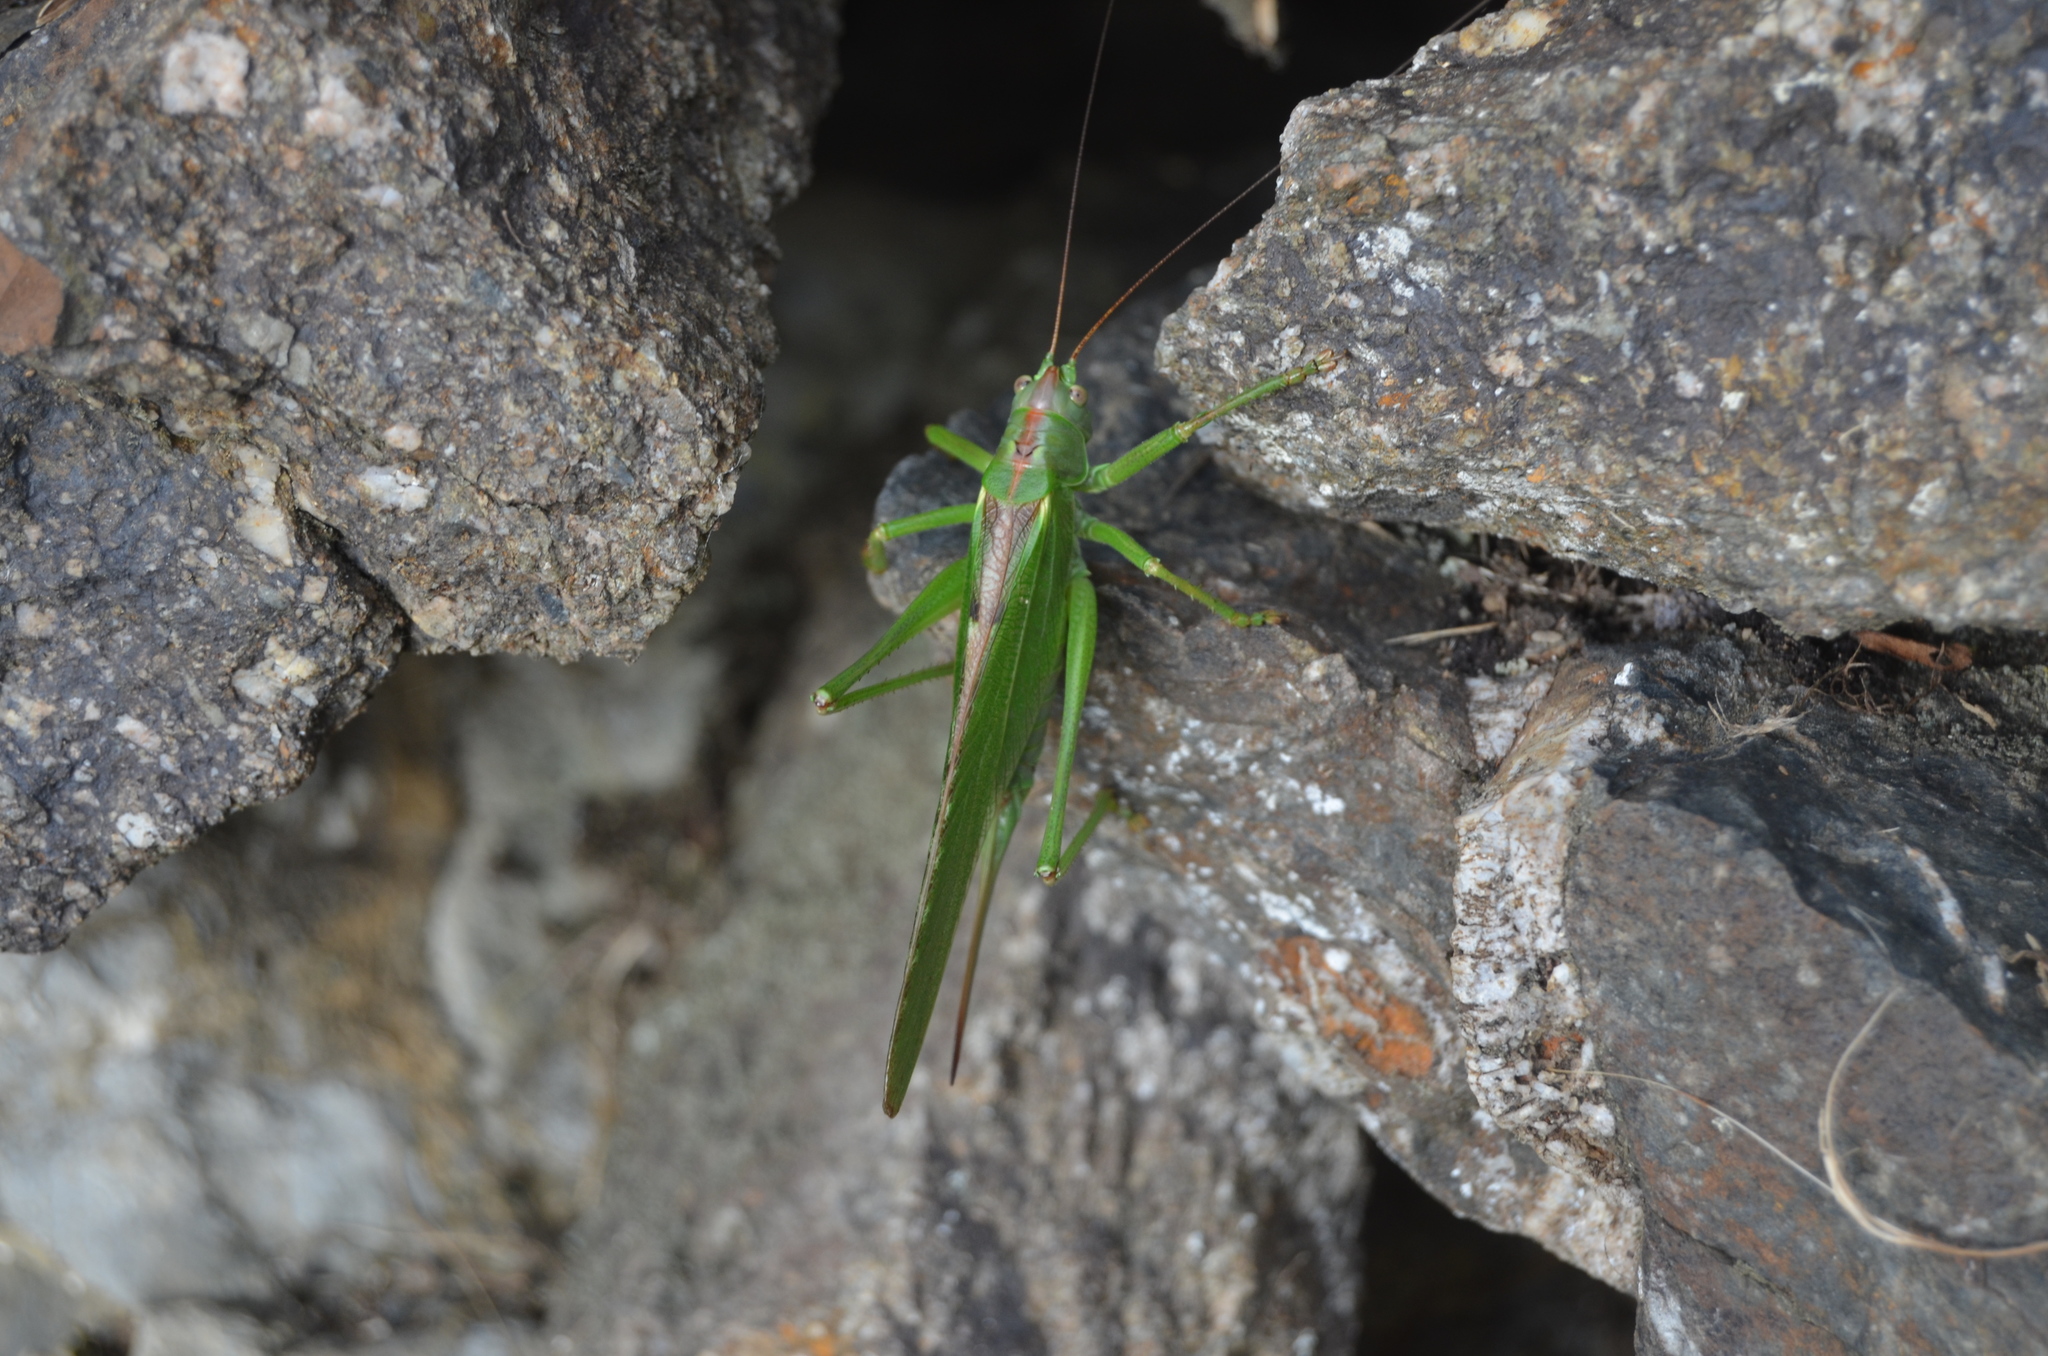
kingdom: Animalia
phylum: Arthropoda
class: Insecta
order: Orthoptera
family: Tettigoniidae
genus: Tettigonia
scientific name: Tettigonia viridissima
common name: Great green bush-cricket
